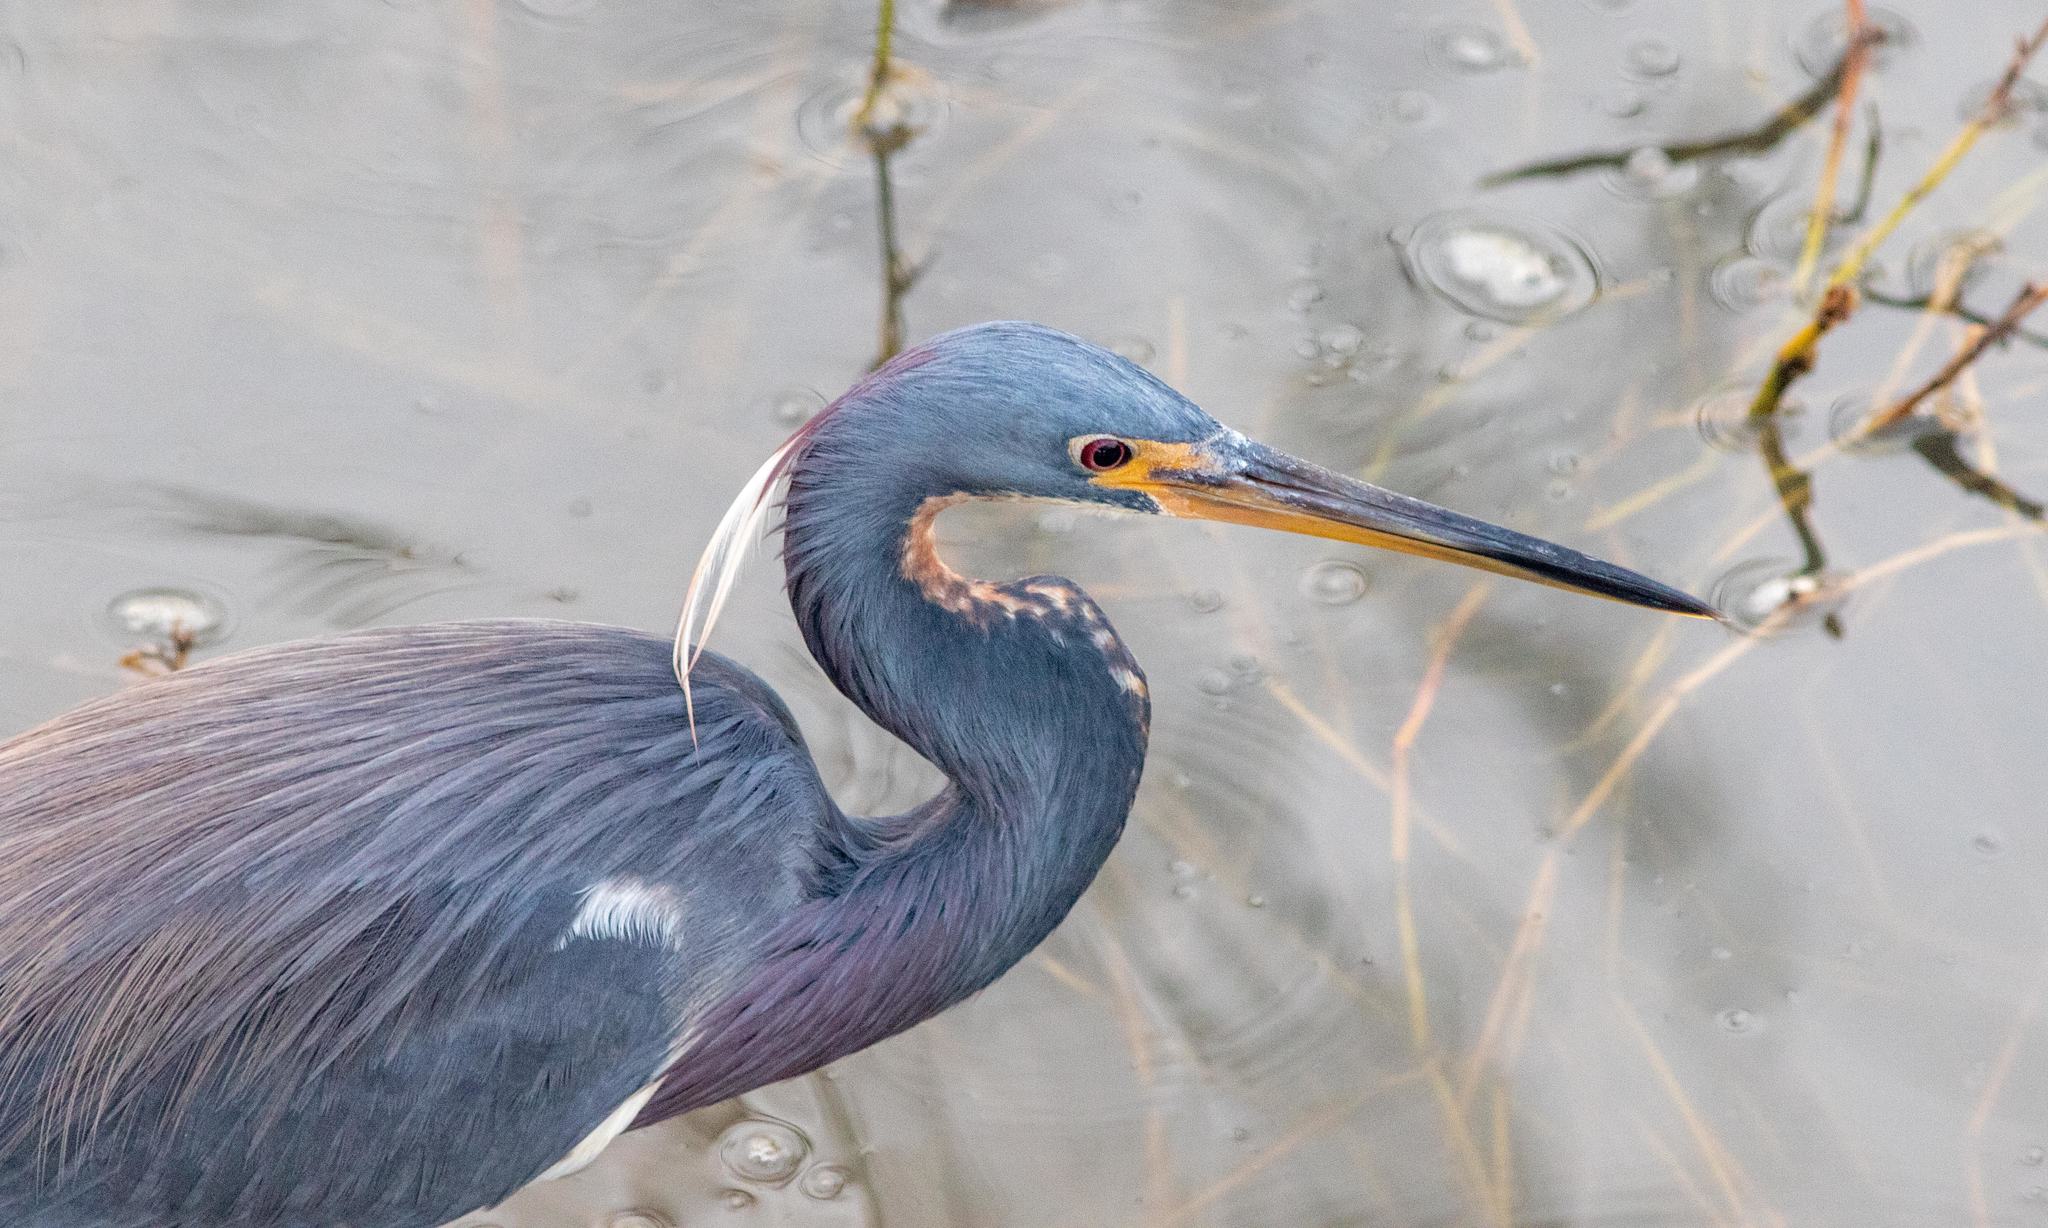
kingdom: Animalia
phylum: Chordata
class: Aves
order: Pelecaniformes
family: Ardeidae
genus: Egretta
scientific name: Egretta tricolor
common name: Tricolored heron
